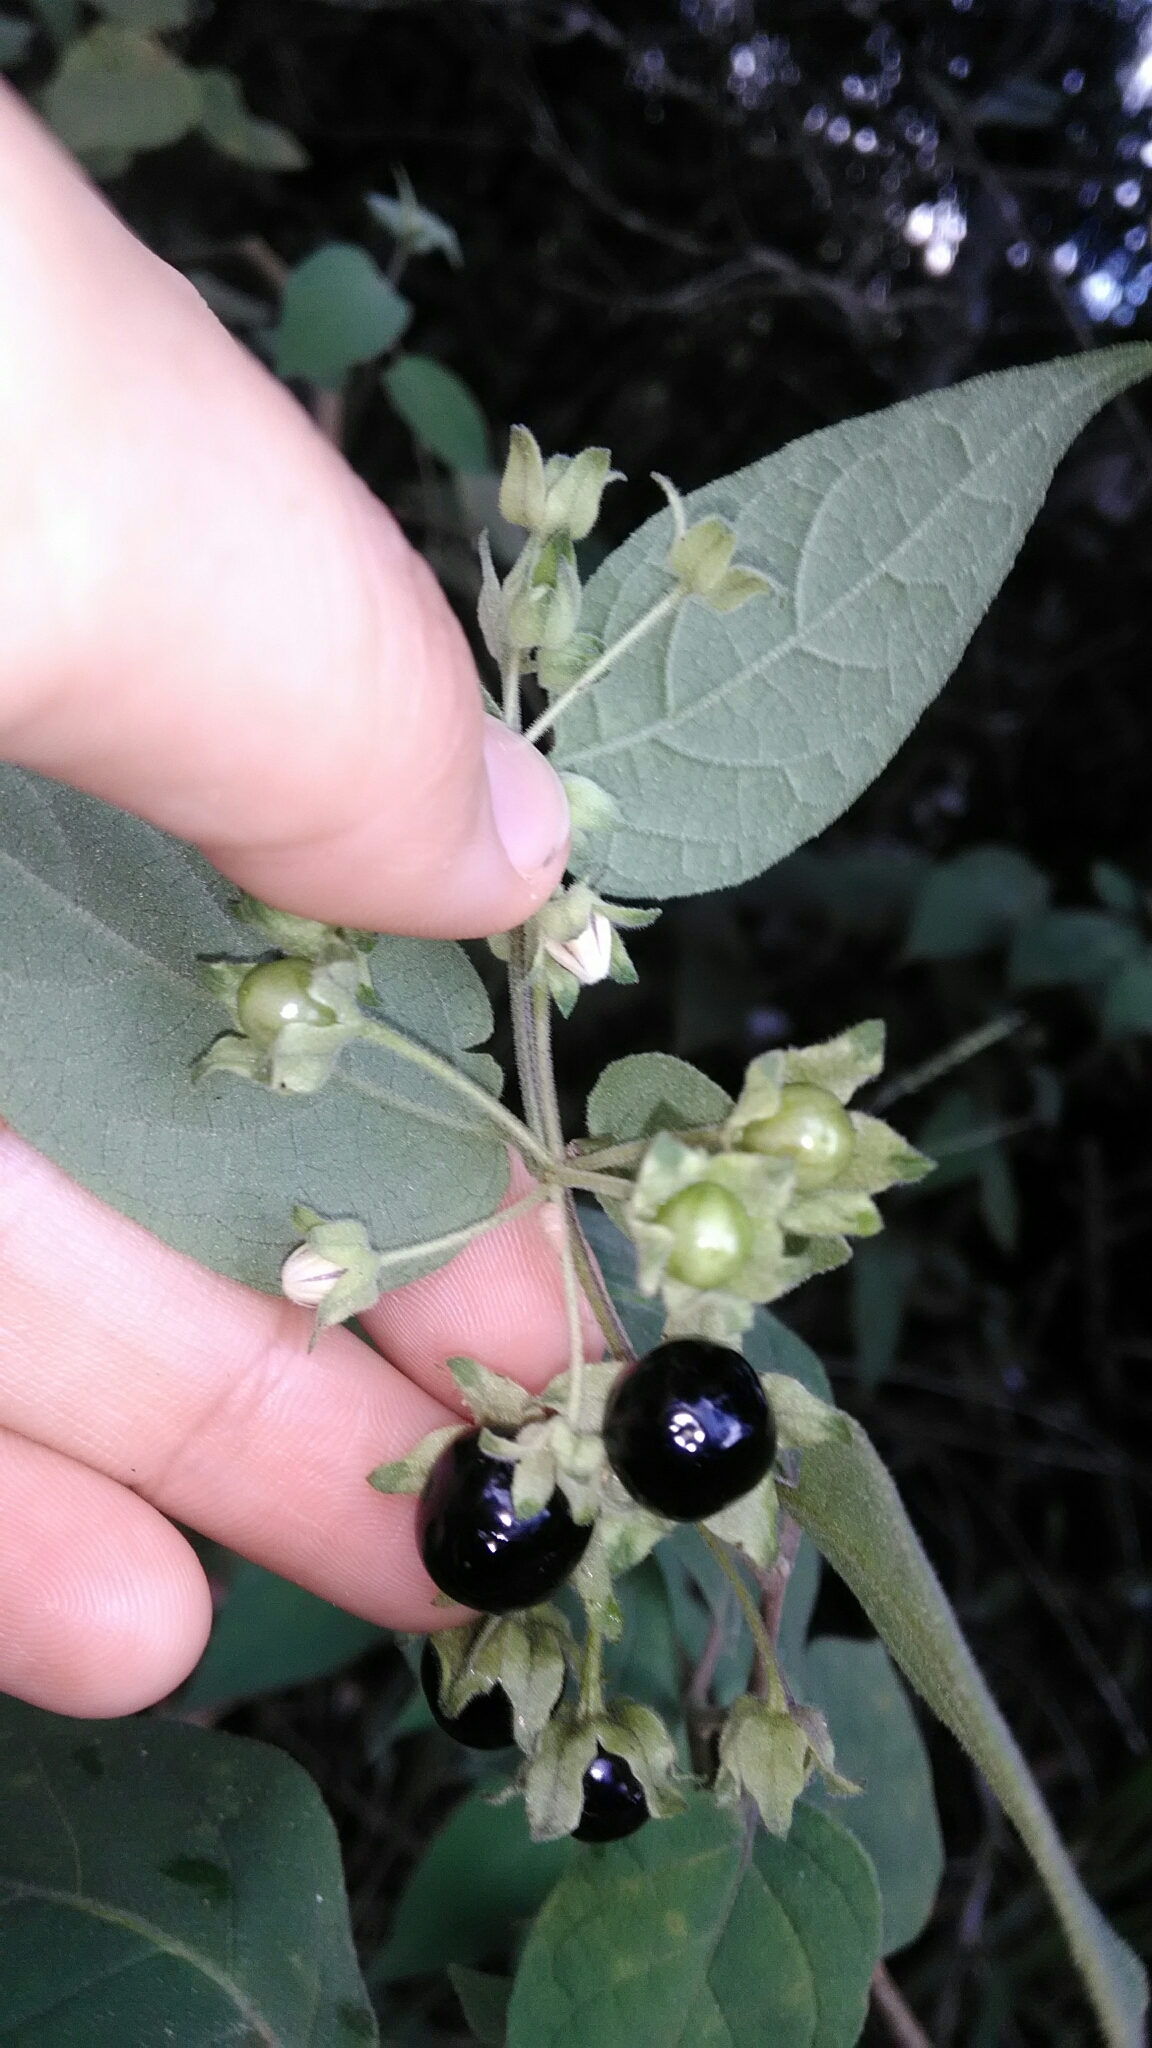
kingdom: Plantae
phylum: Tracheophyta
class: Magnoliopsida
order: Solanales
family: Solanaceae
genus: Solanum
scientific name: Solanum didymum
